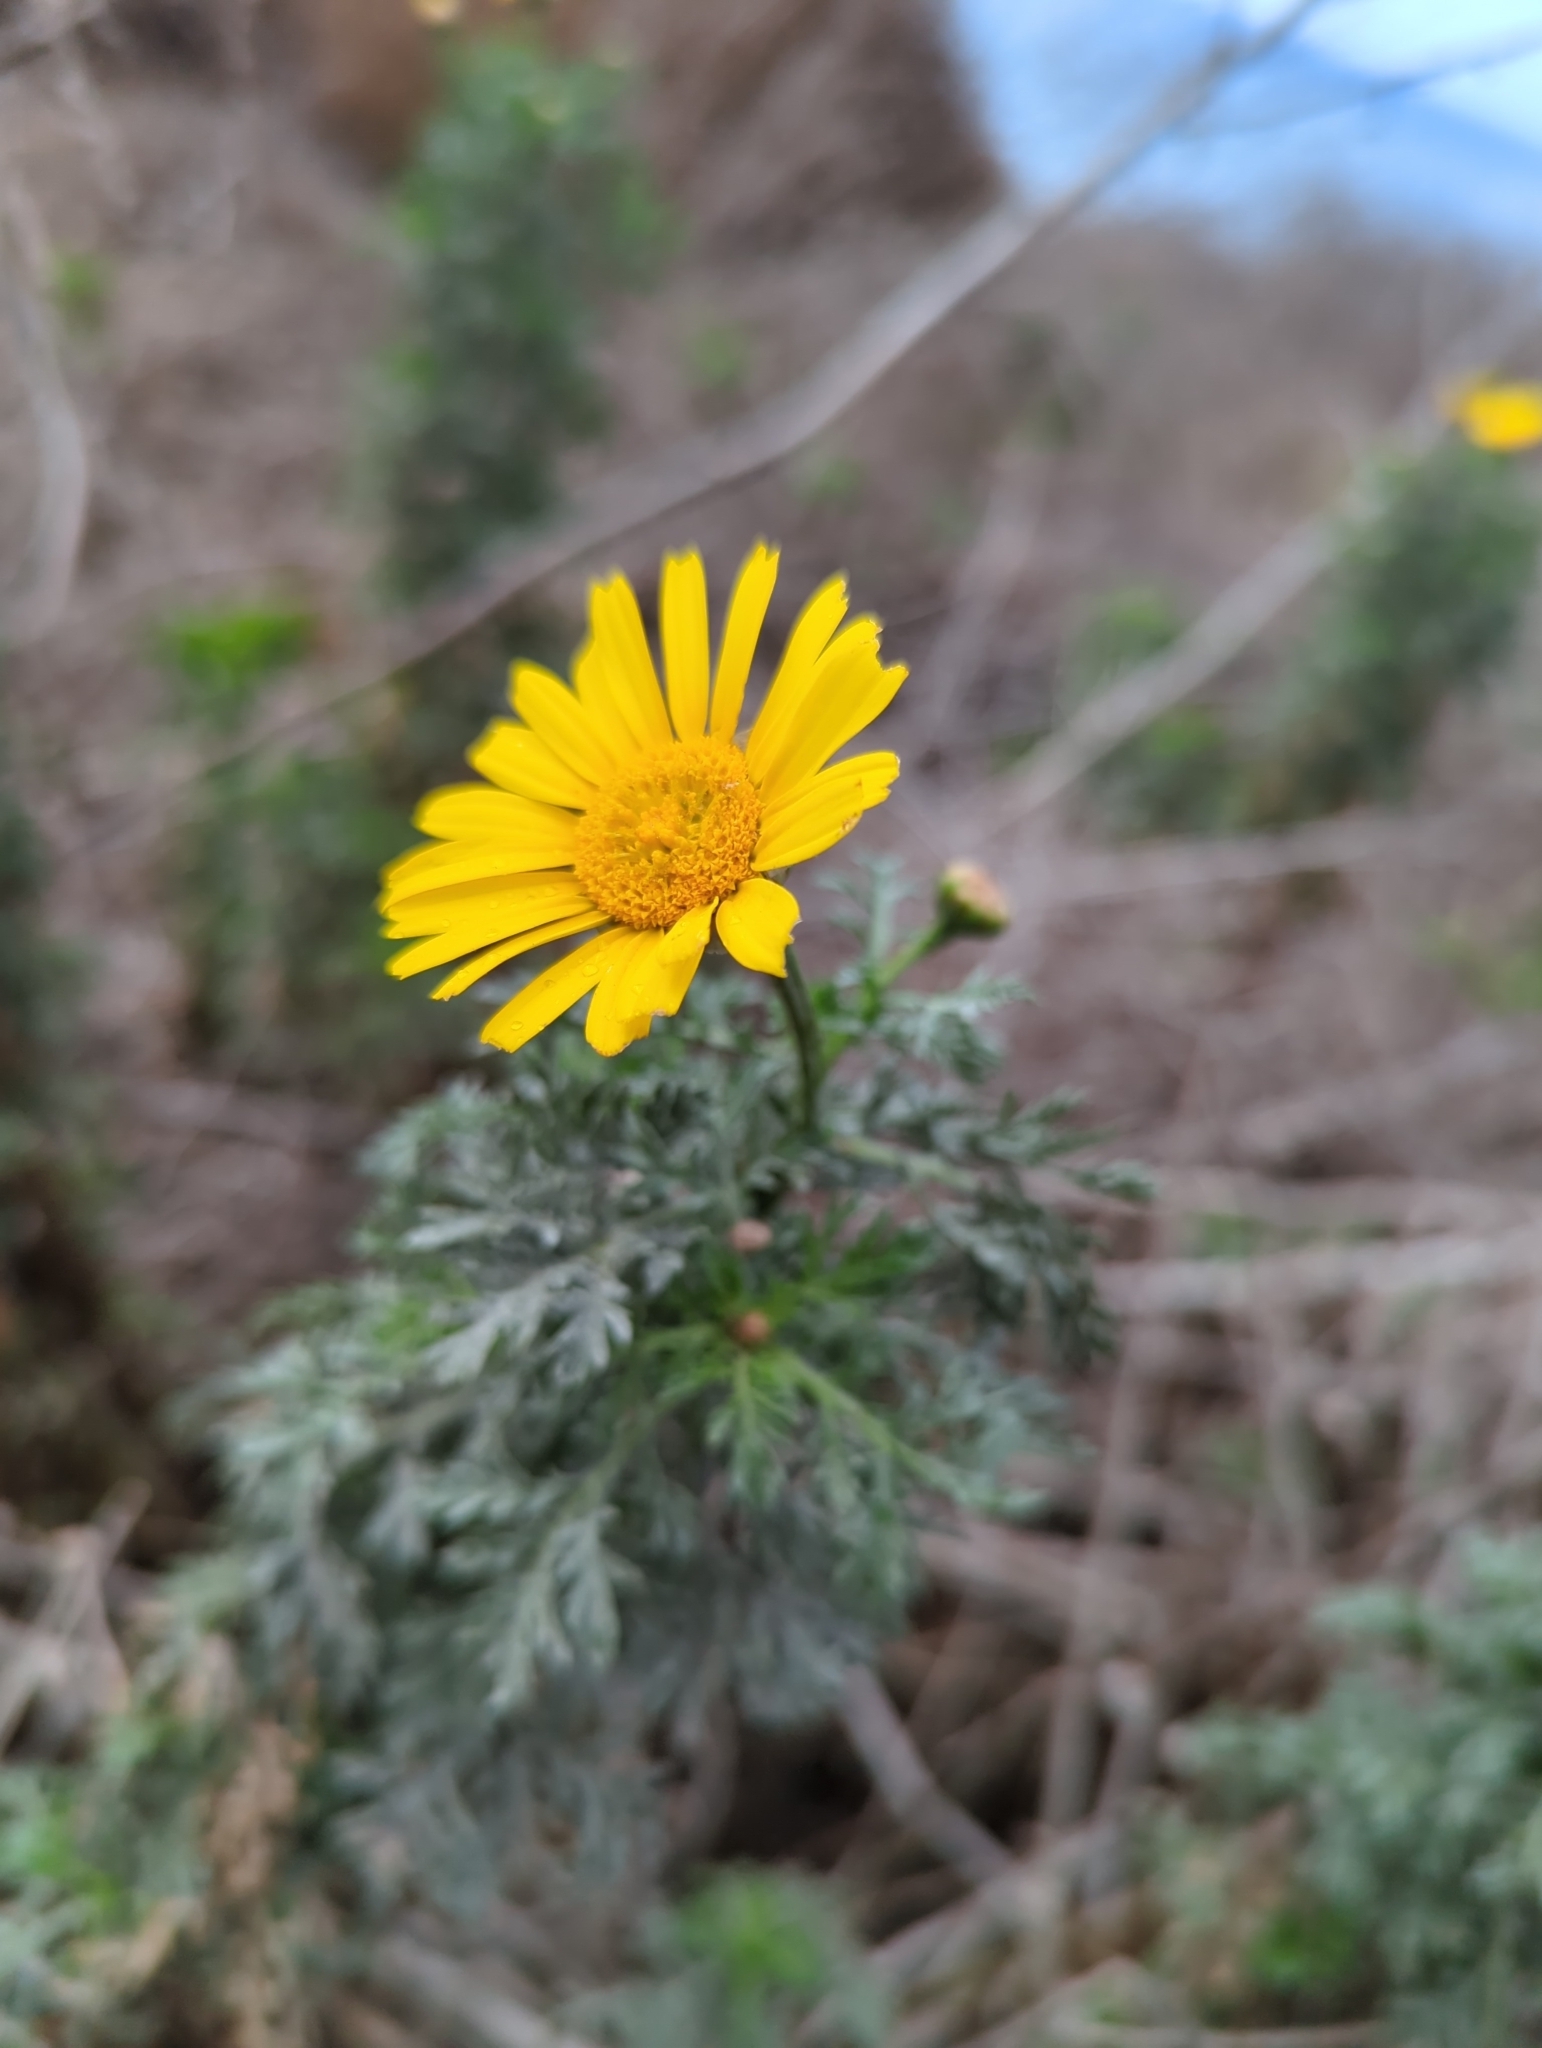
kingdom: Plantae
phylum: Tracheophyta
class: Magnoliopsida
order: Asterales
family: Asteraceae
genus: Glebionis
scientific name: Glebionis coronaria
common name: Crowndaisy
